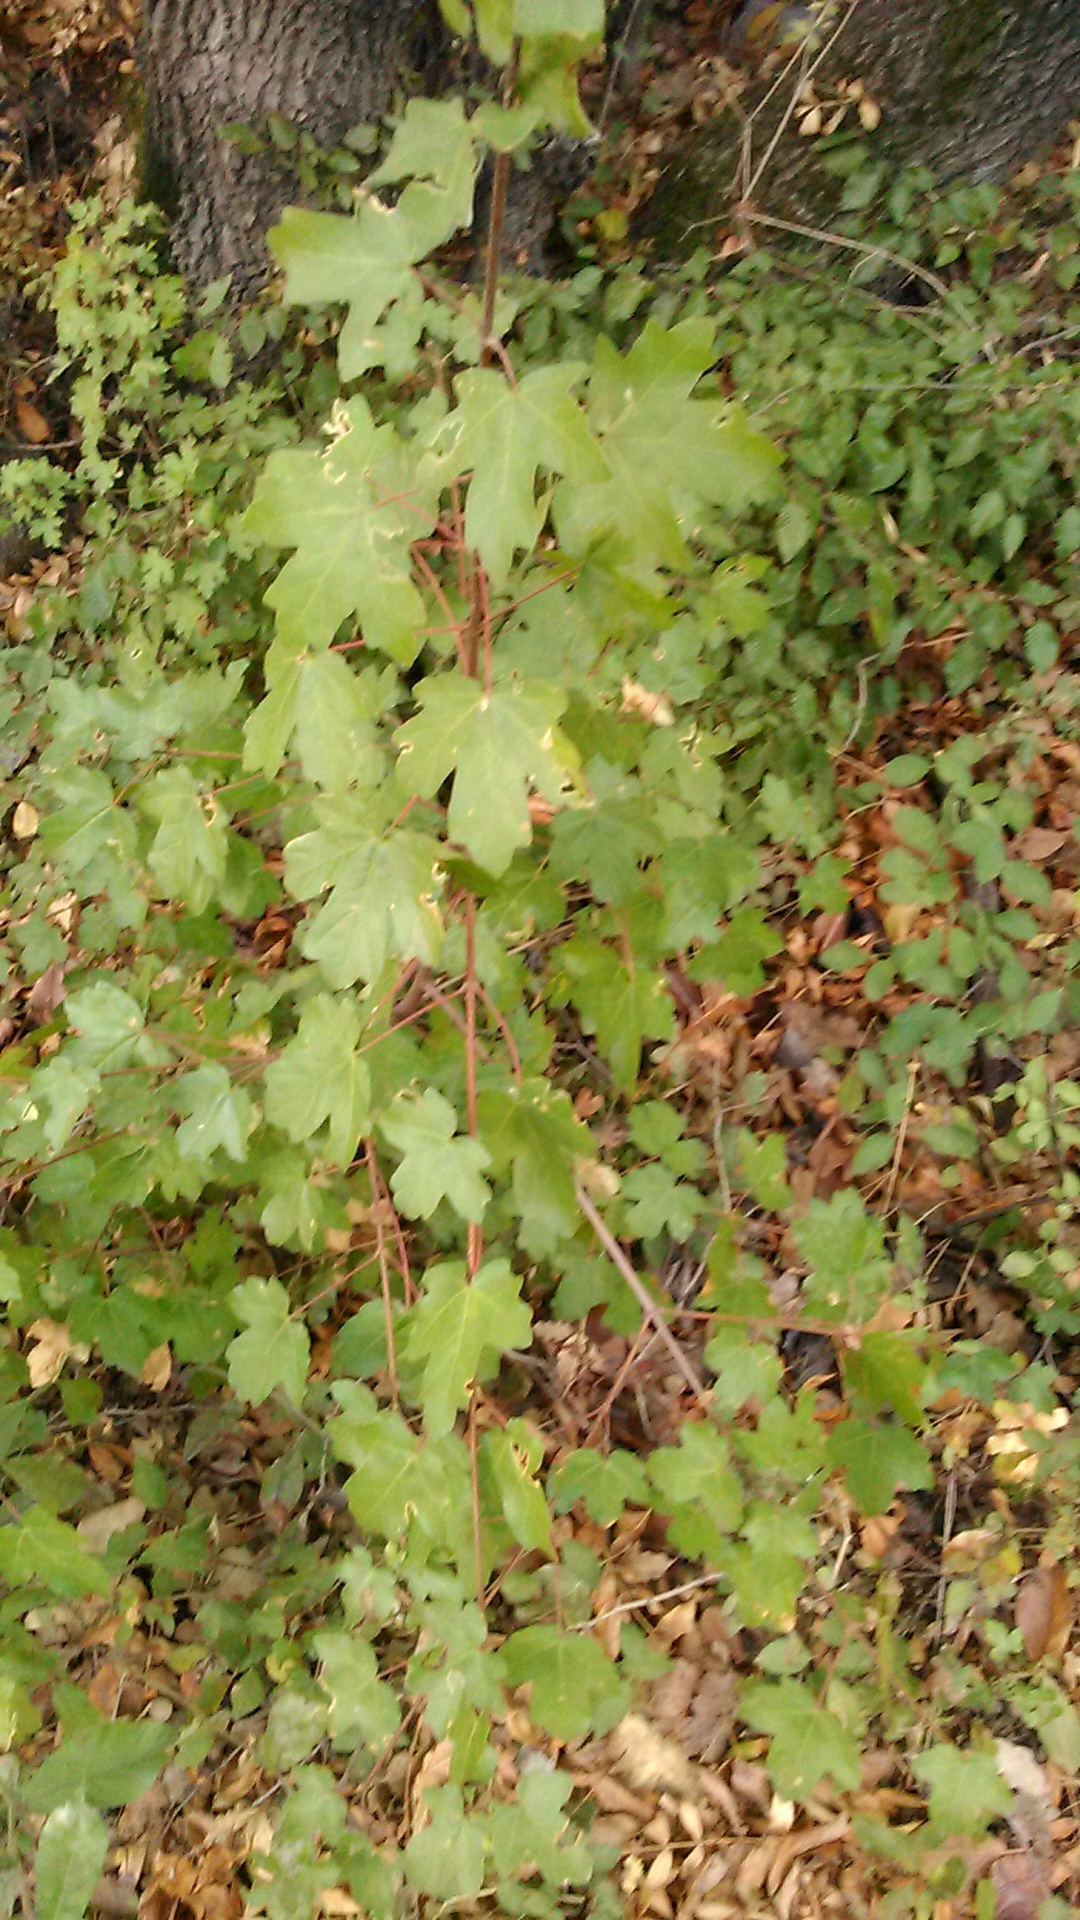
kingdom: Plantae
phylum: Tracheophyta
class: Magnoliopsida
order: Sapindales
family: Sapindaceae
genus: Acer
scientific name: Acer campestre
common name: Field maple
